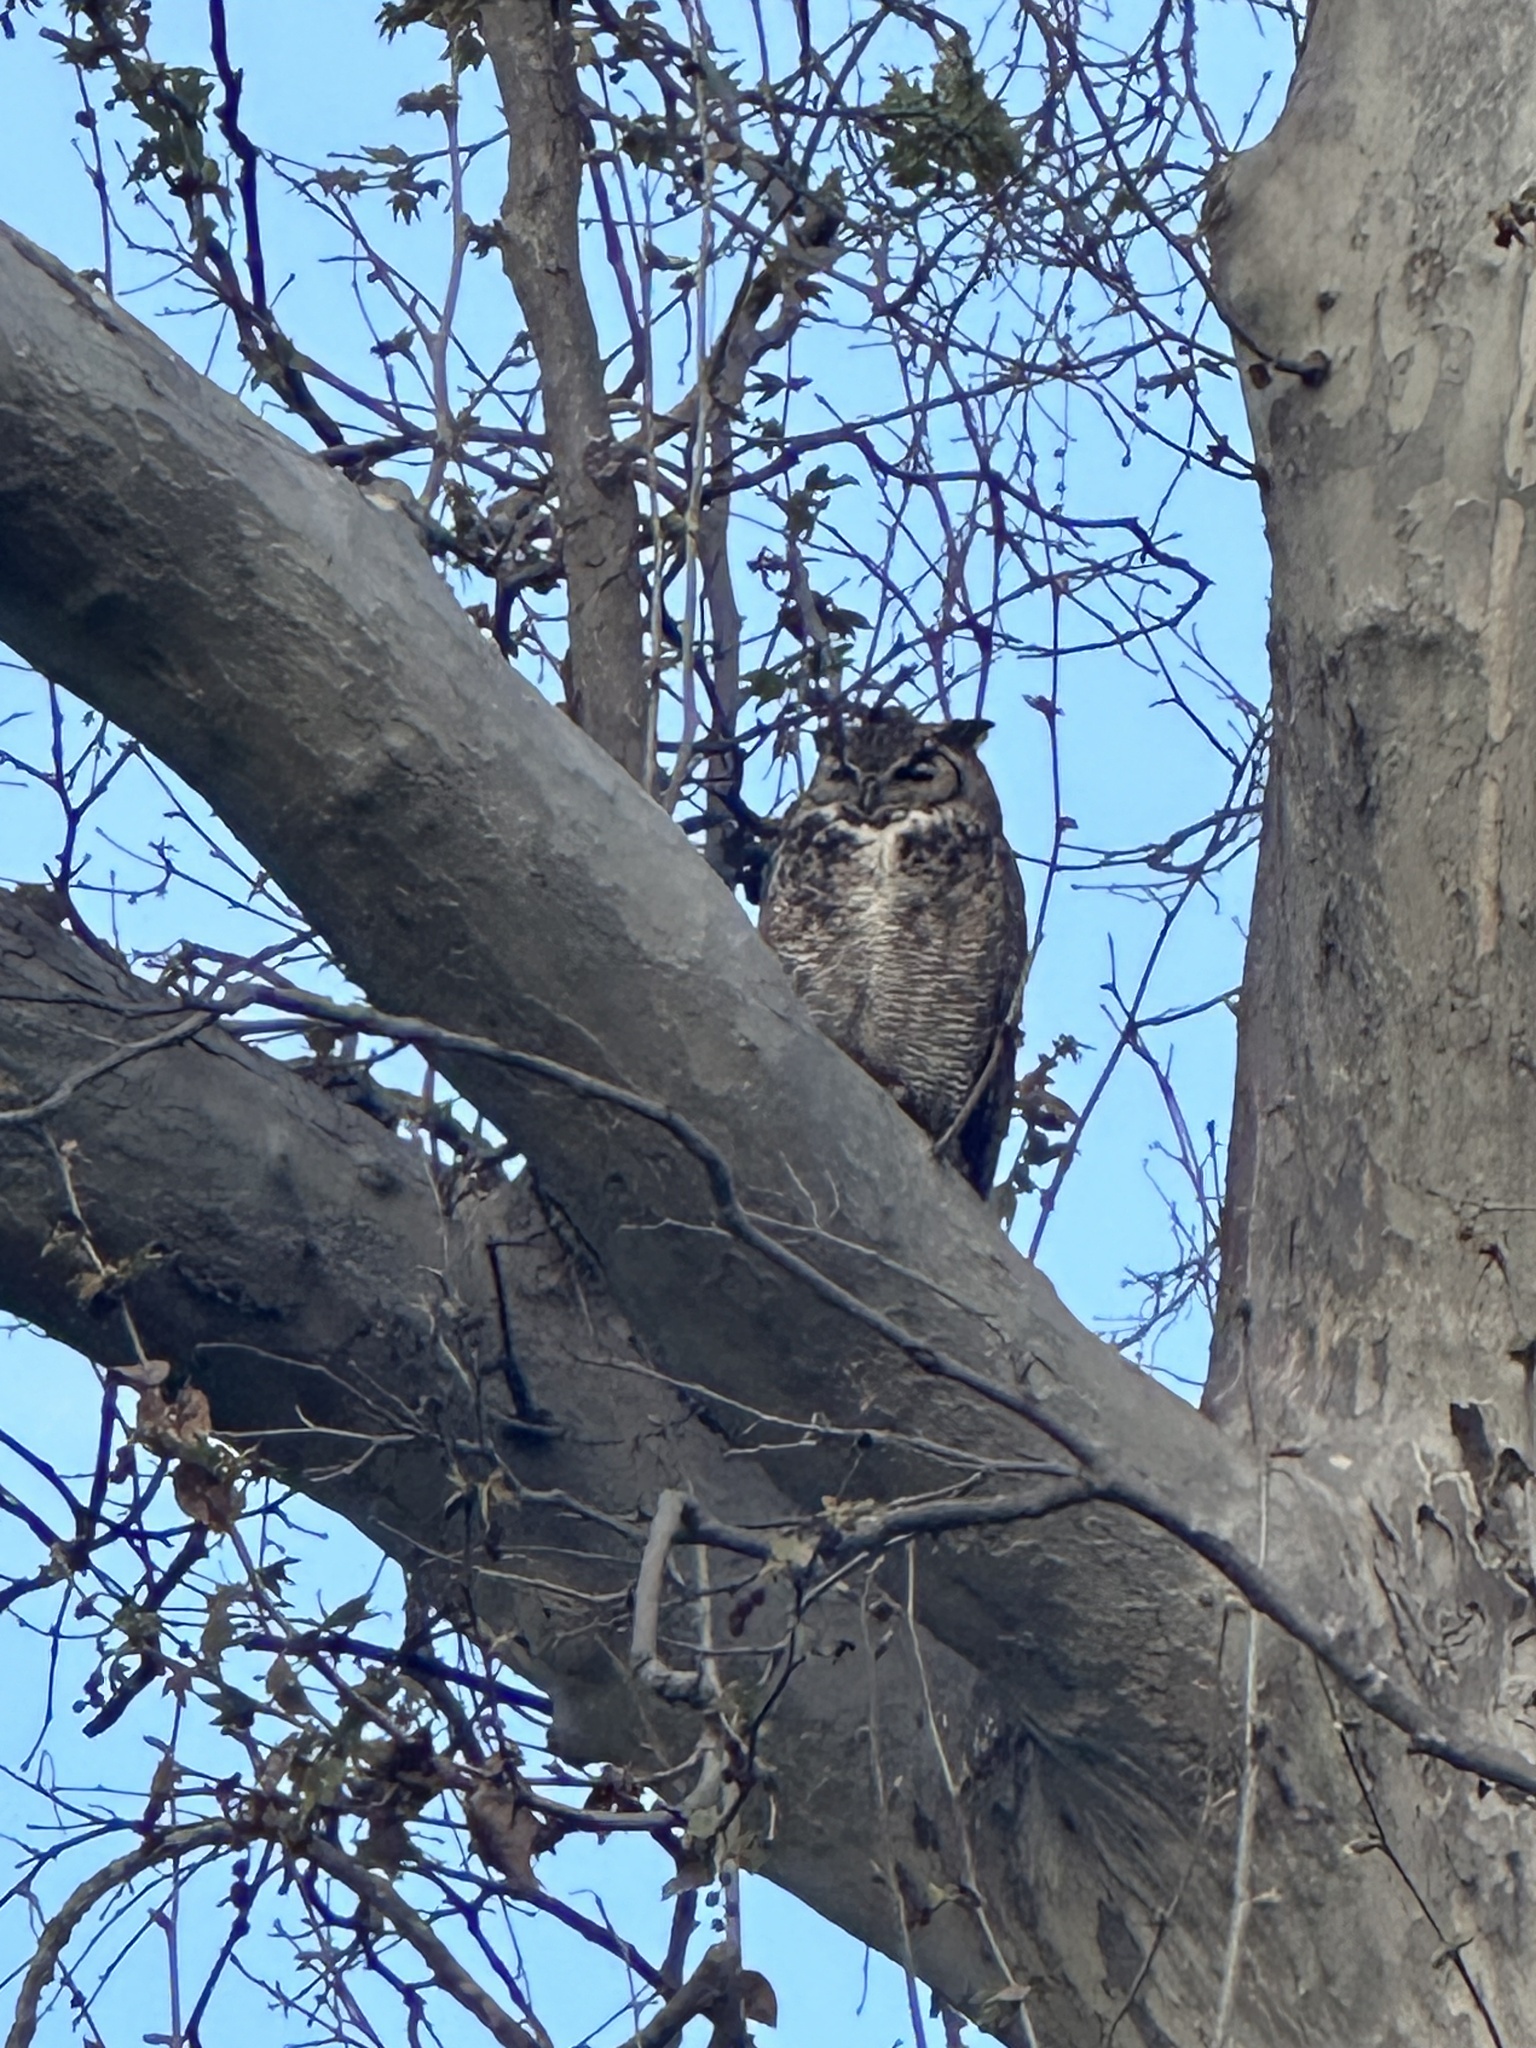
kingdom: Animalia
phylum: Chordata
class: Aves
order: Strigiformes
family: Strigidae
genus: Bubo
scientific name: Bubo virginianus
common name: Great horned owl
